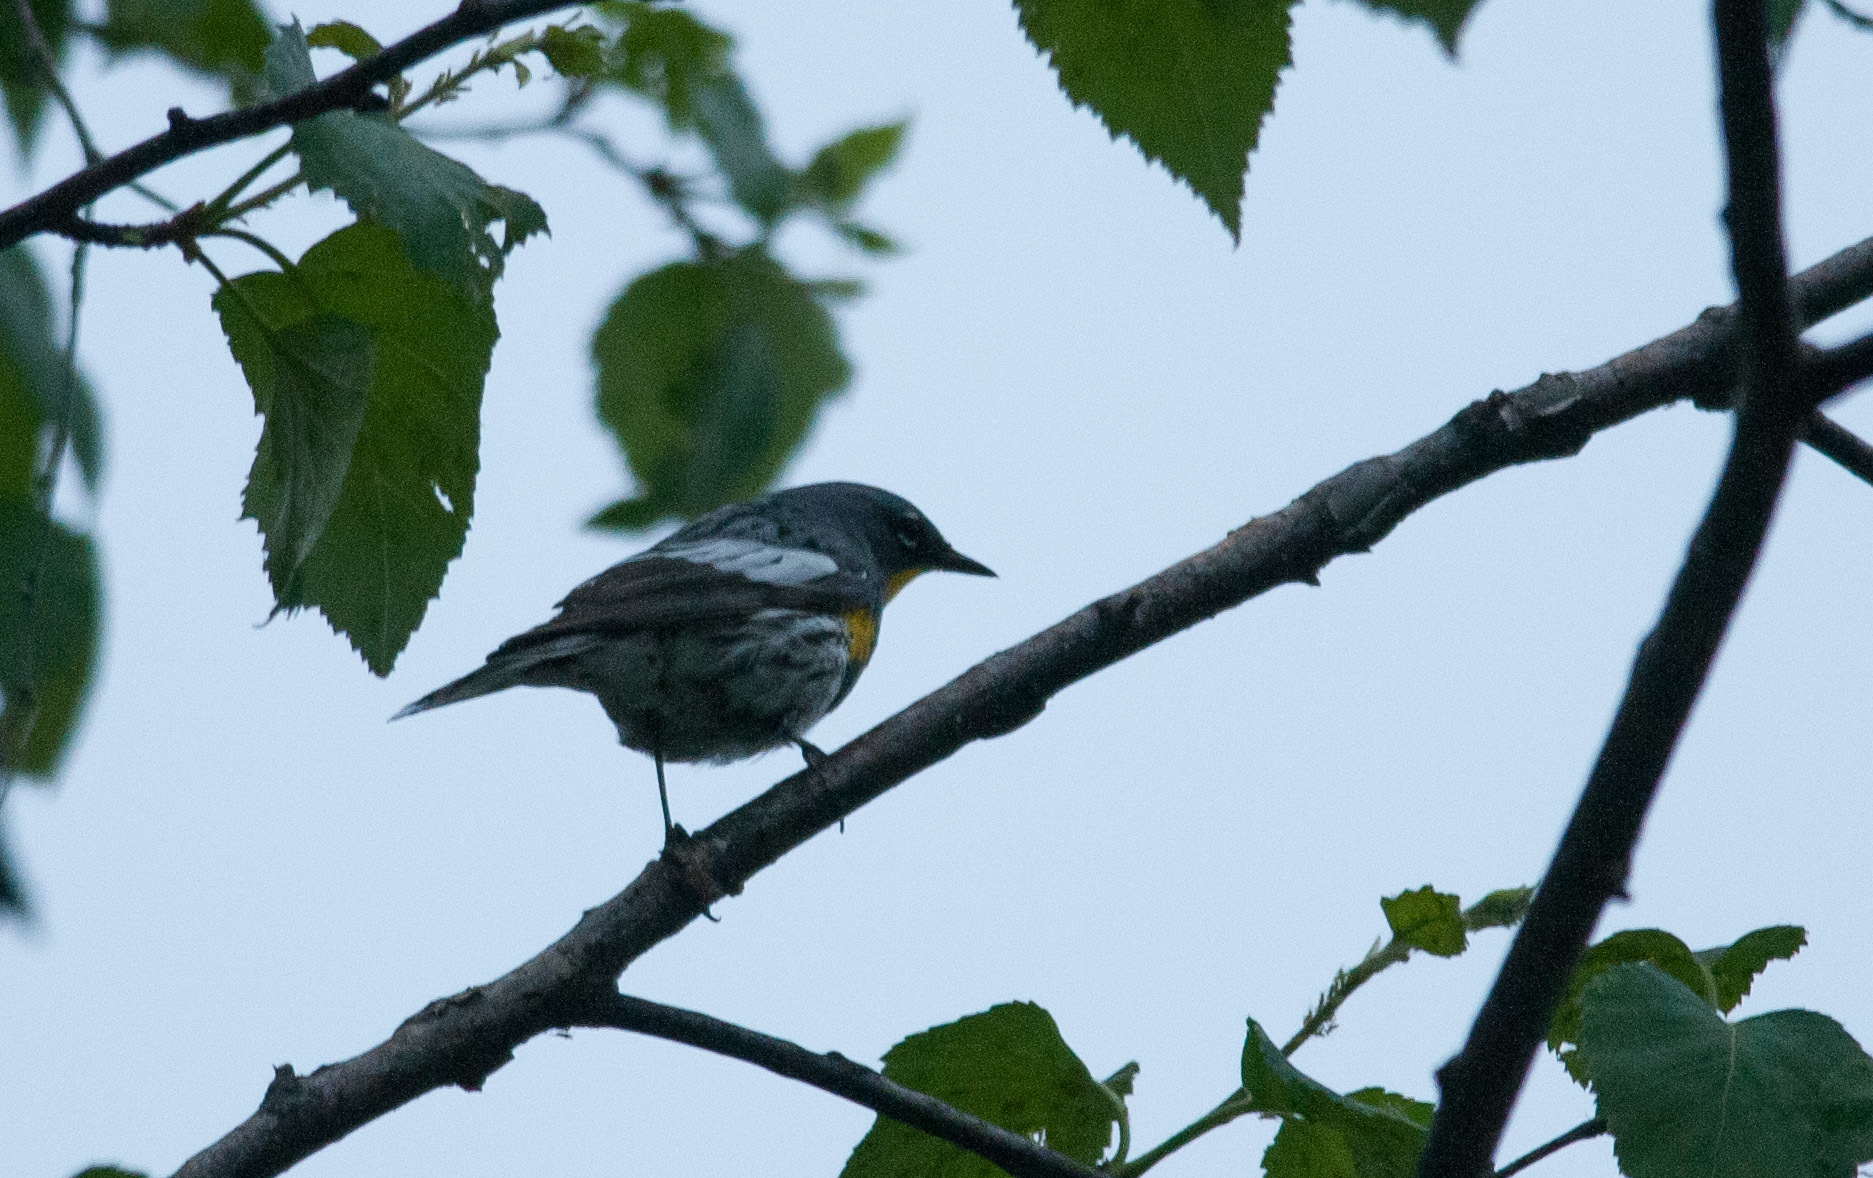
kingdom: Animalia
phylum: Chordata
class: Aves
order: Passeriformes
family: Parulidae
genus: Setophaga
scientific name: Setophaga coronata
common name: Myrtle warbler
